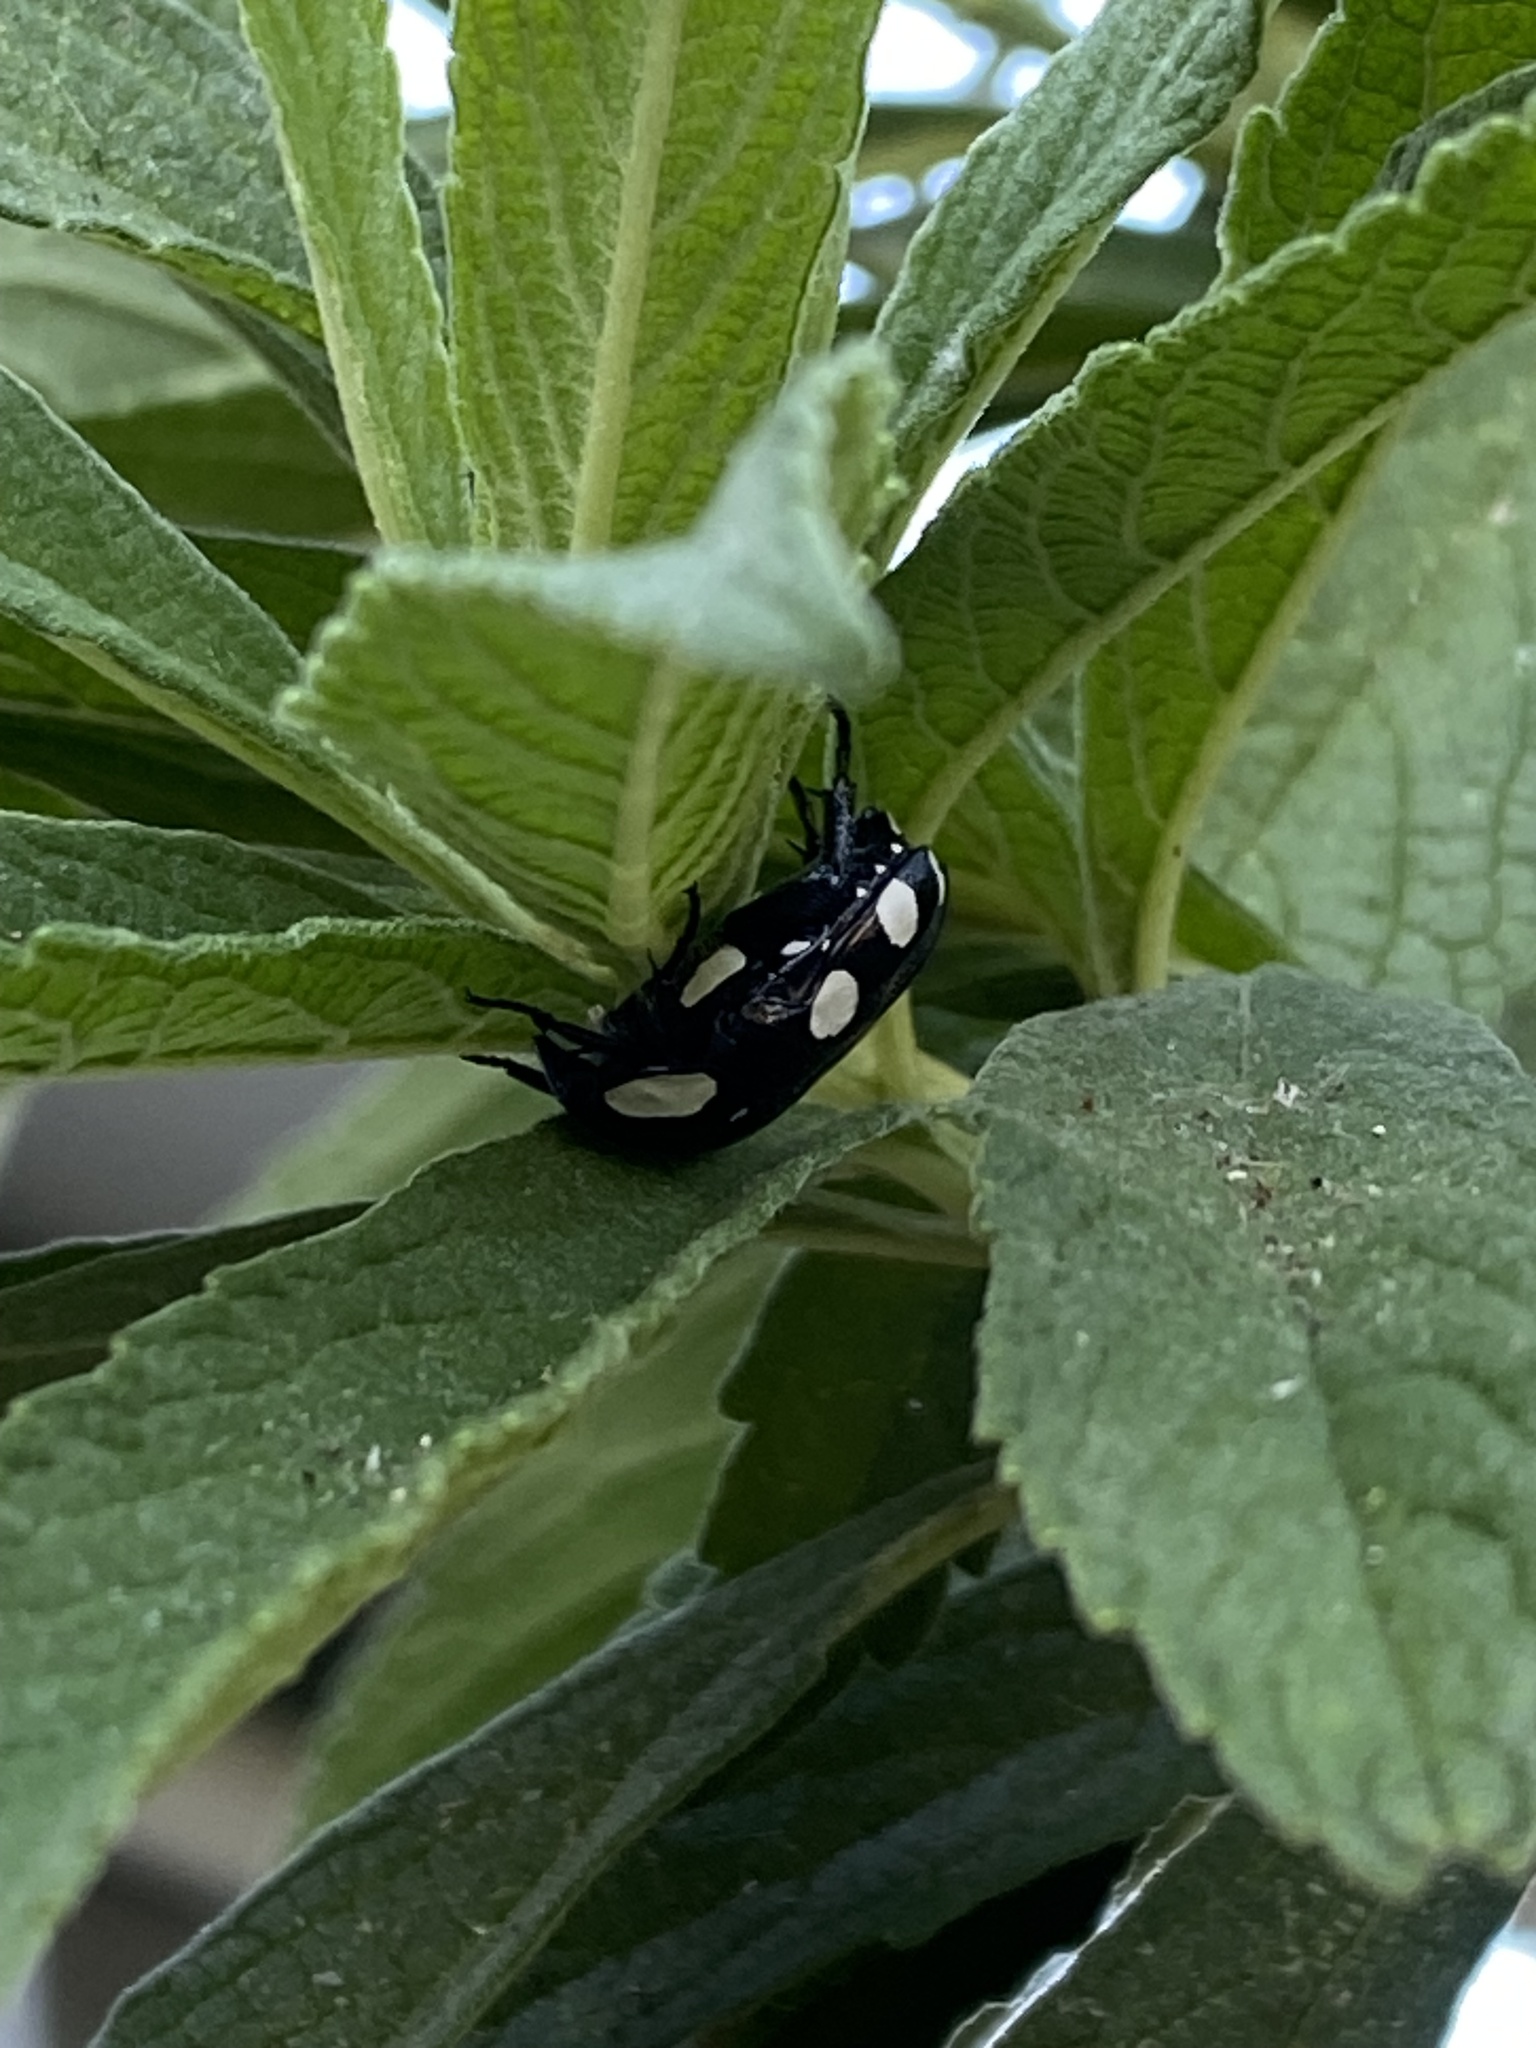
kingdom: Animalia
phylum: Arthropoda
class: Insecta
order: Coleoptera
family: Scarabaeidae
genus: Mausoleopsis
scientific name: Mausoleopsis amabilis
